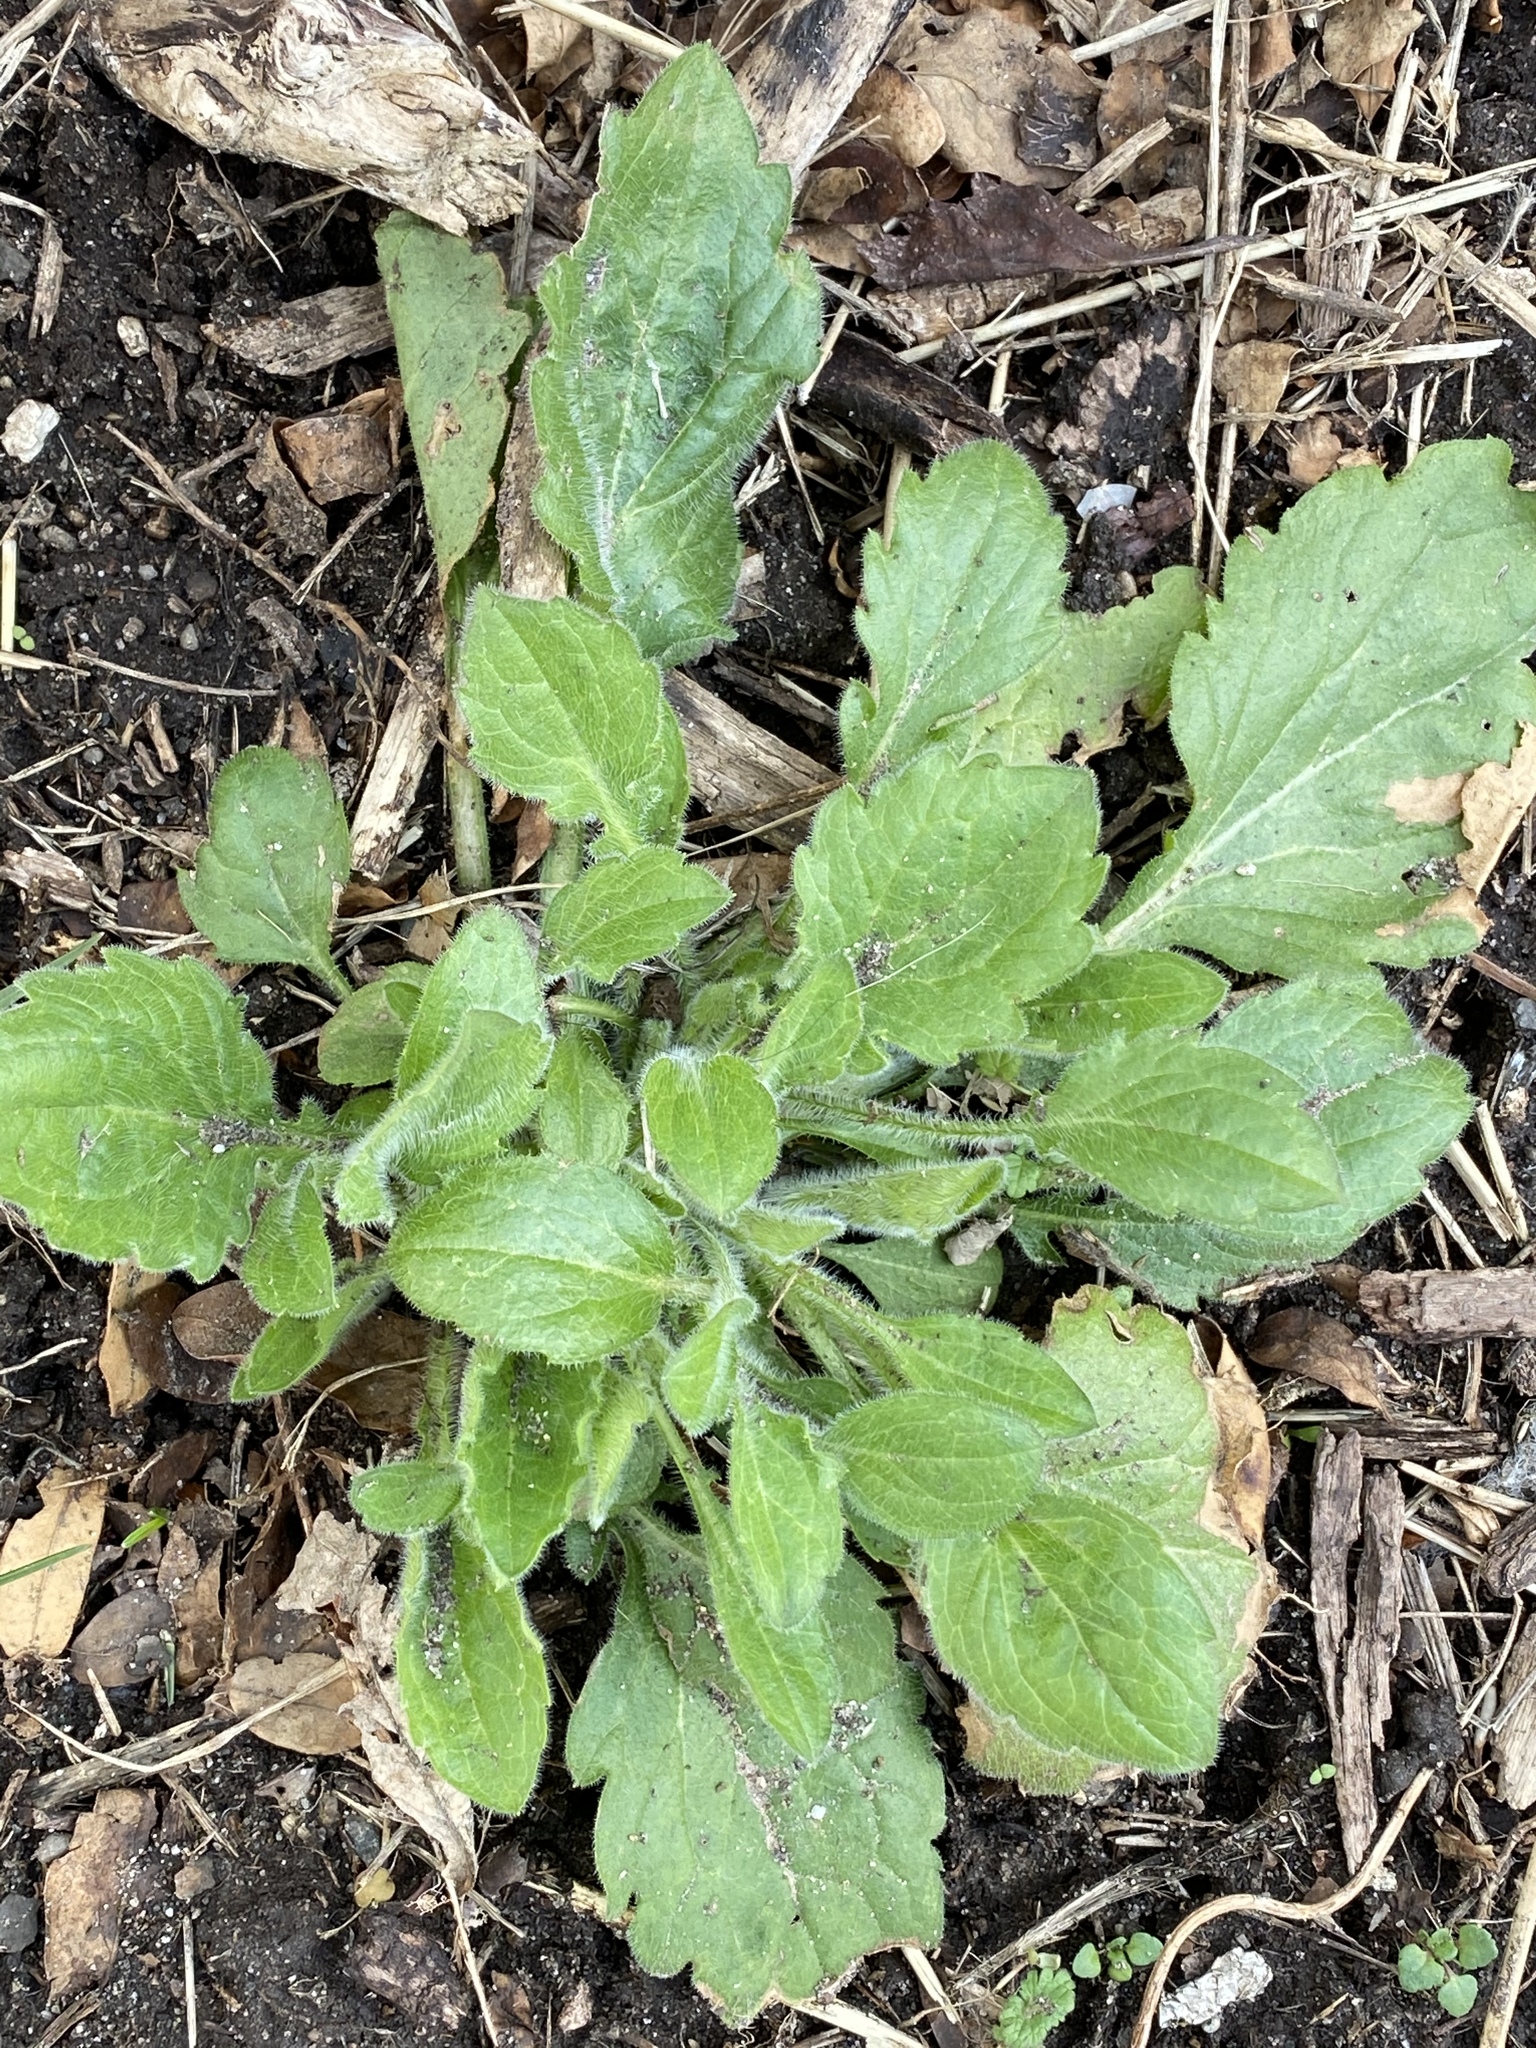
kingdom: Plantae
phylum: Tracheophyta
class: Magnoliopsida
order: Asterales
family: Asteraceae
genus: Erigeron
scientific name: Erigeron canadensis
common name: Canadian fleabane
